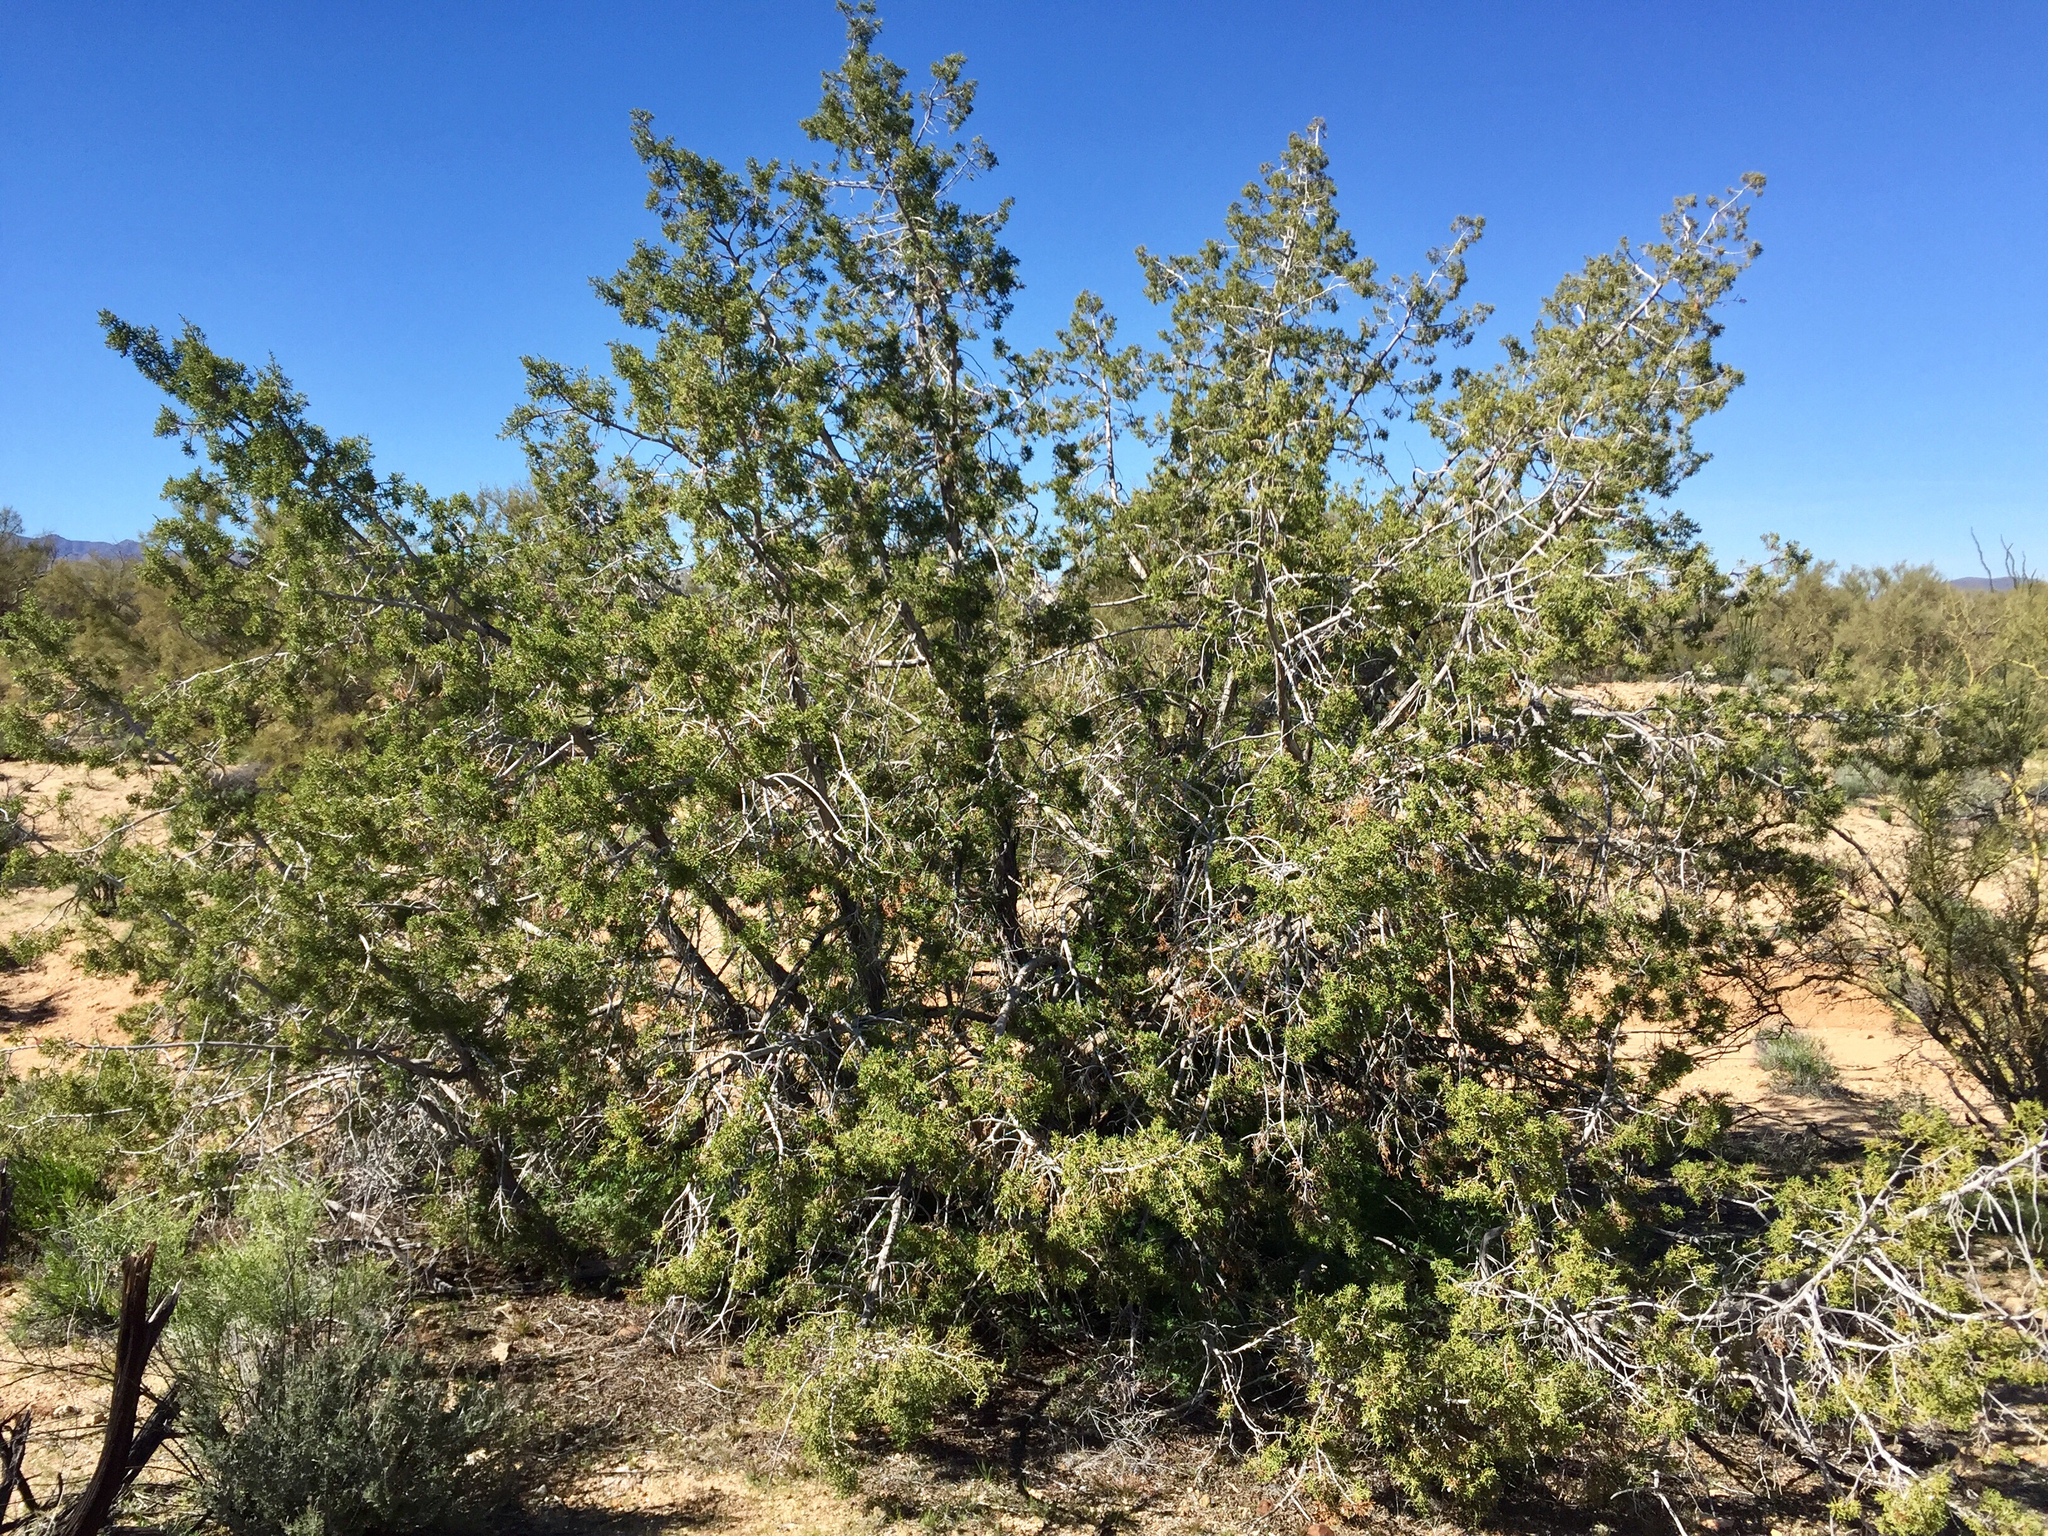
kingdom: Plantae
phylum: Tracheophyta
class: Pinopsida
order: Pinales
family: Cupressaceae
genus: Juniperus
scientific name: Juniperus californica
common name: California juniper
